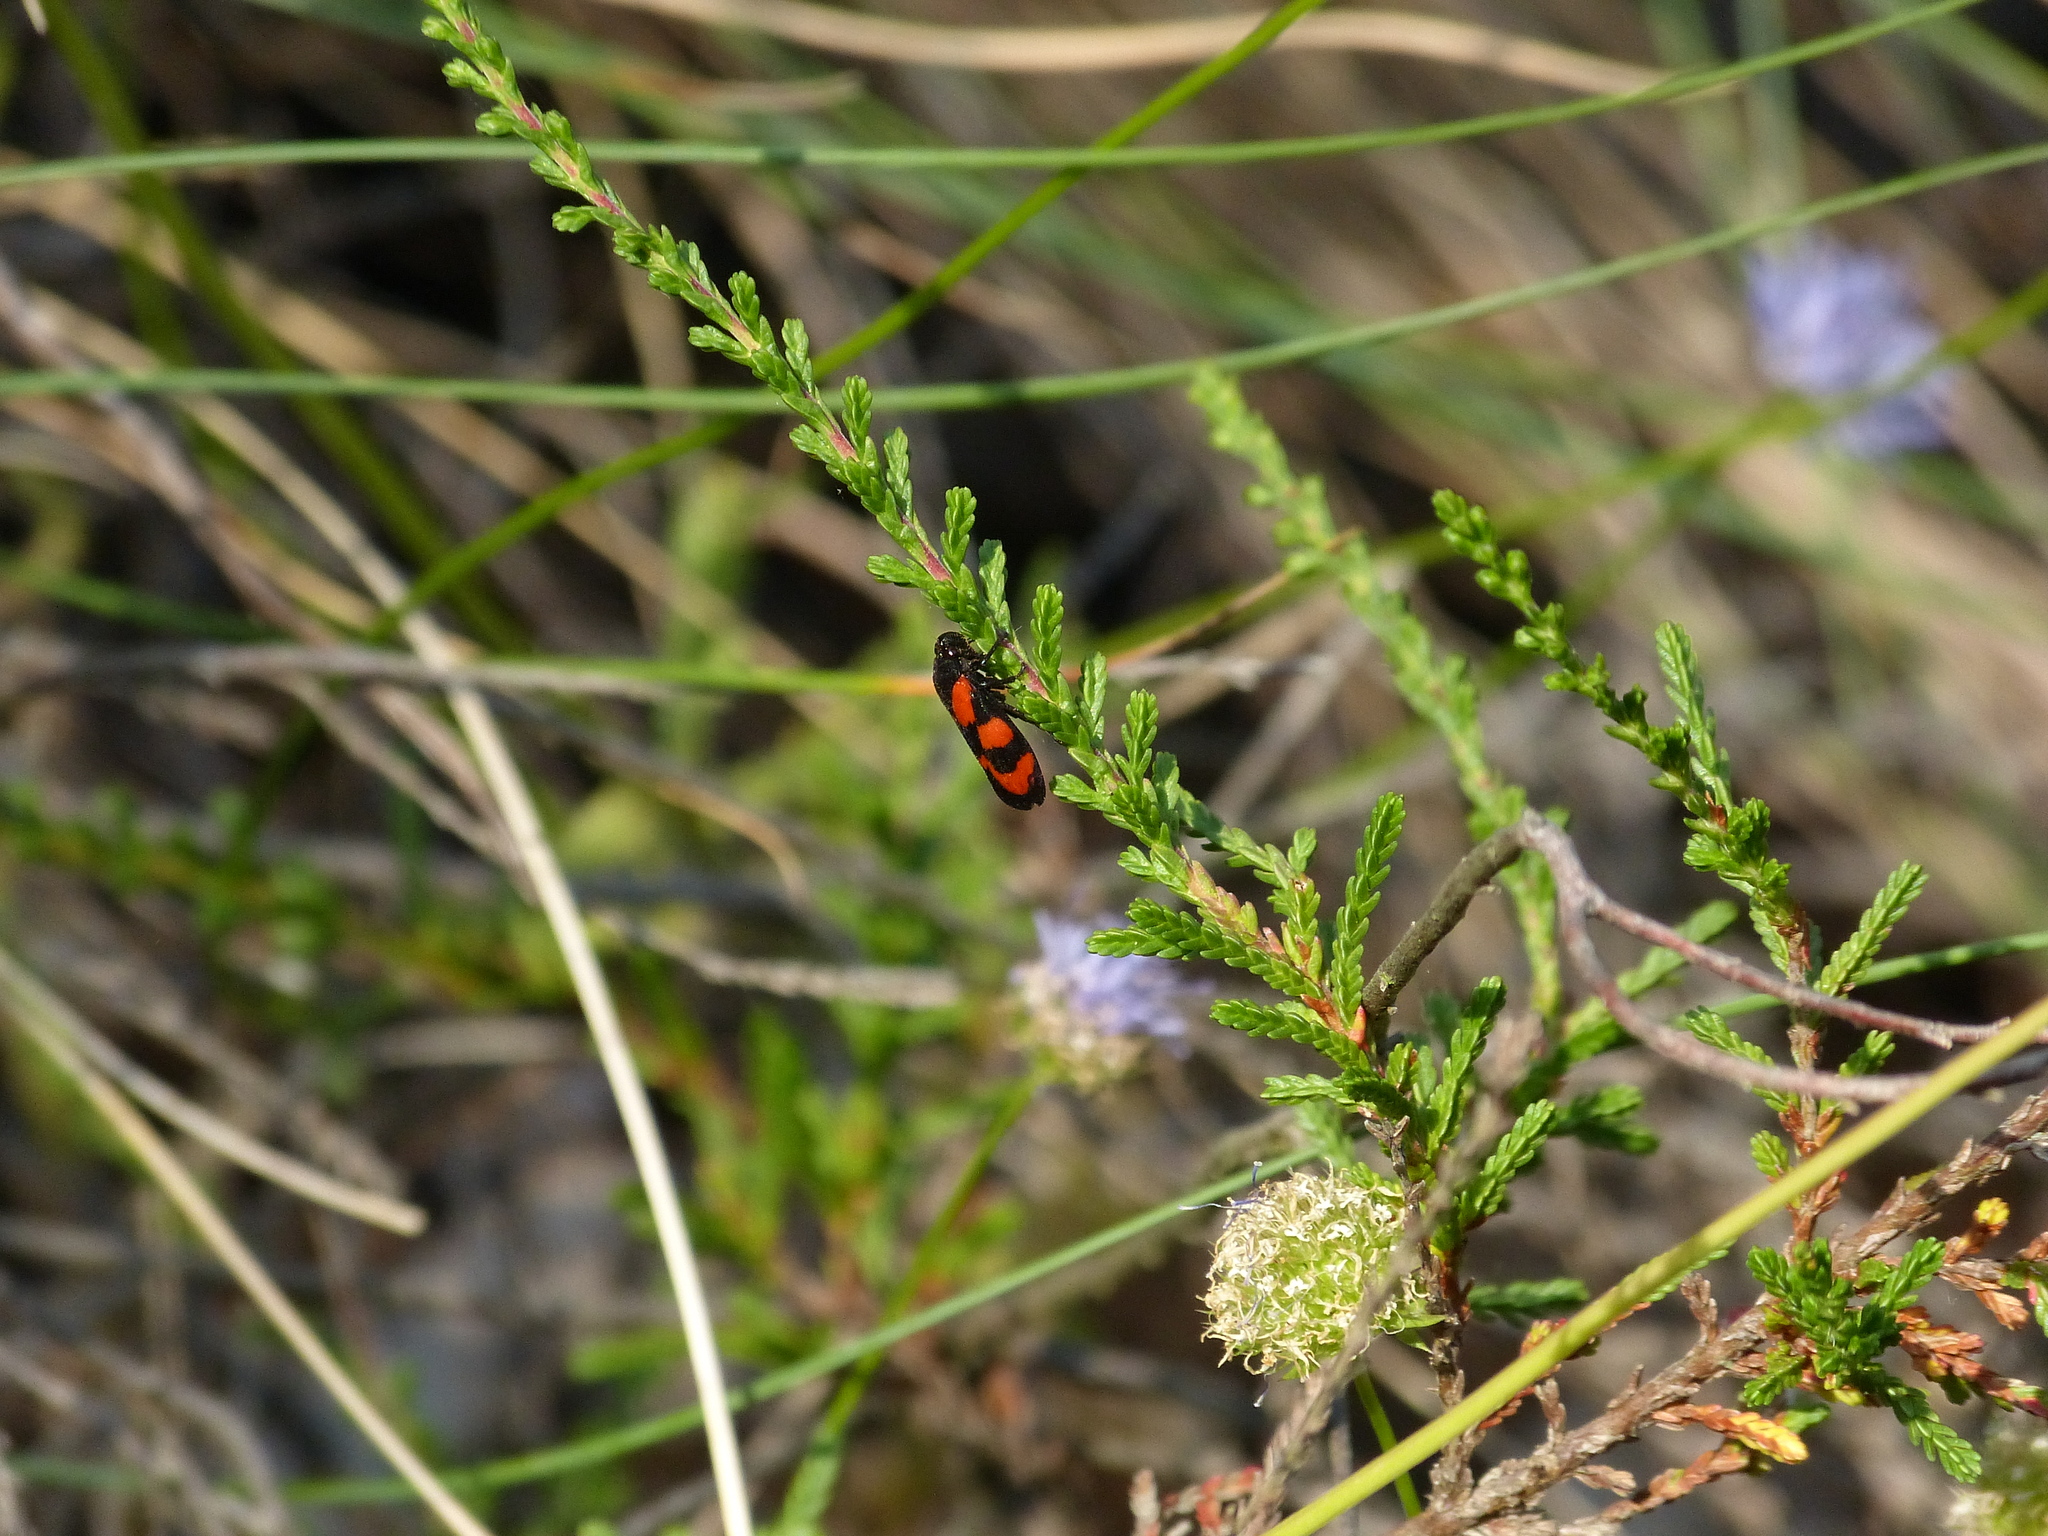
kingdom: Animalia
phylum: Arthropoda
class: Insecta
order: Hemiptera
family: Cercopidae
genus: Cercopis
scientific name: Cercopis vulnerata
